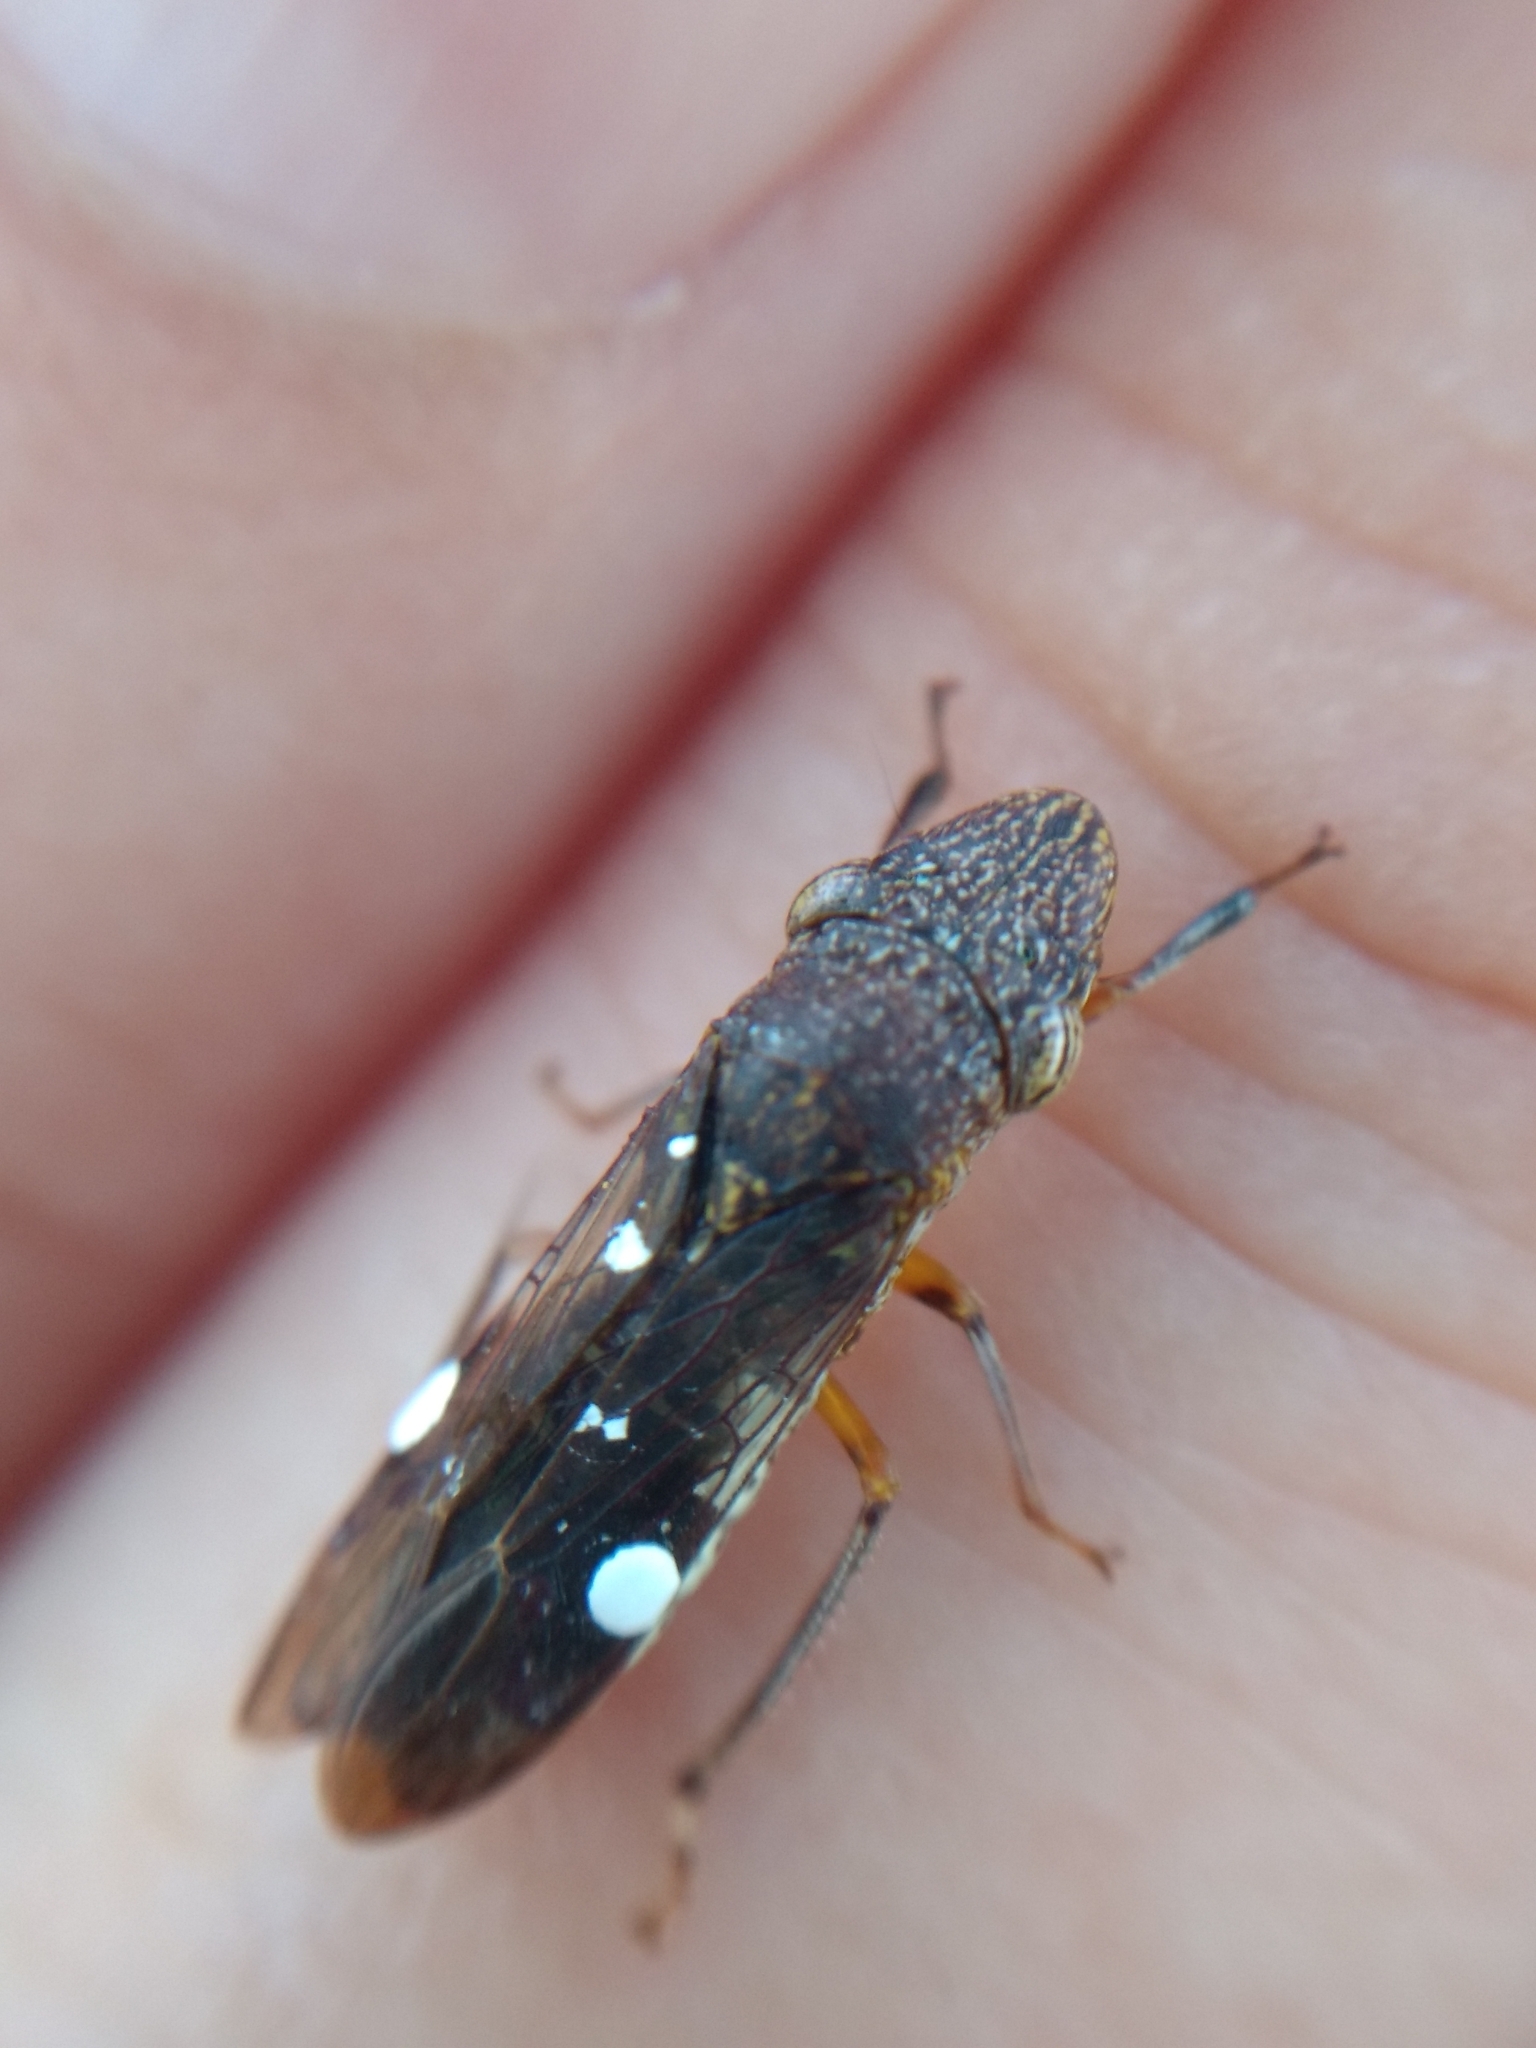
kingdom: Animalia
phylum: Arthropoda
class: Insecta
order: Hemiptera
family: Cicadellidae
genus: Homalodisca
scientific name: Homalodisca vitripennis
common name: Glassy-winged sharpshooter
